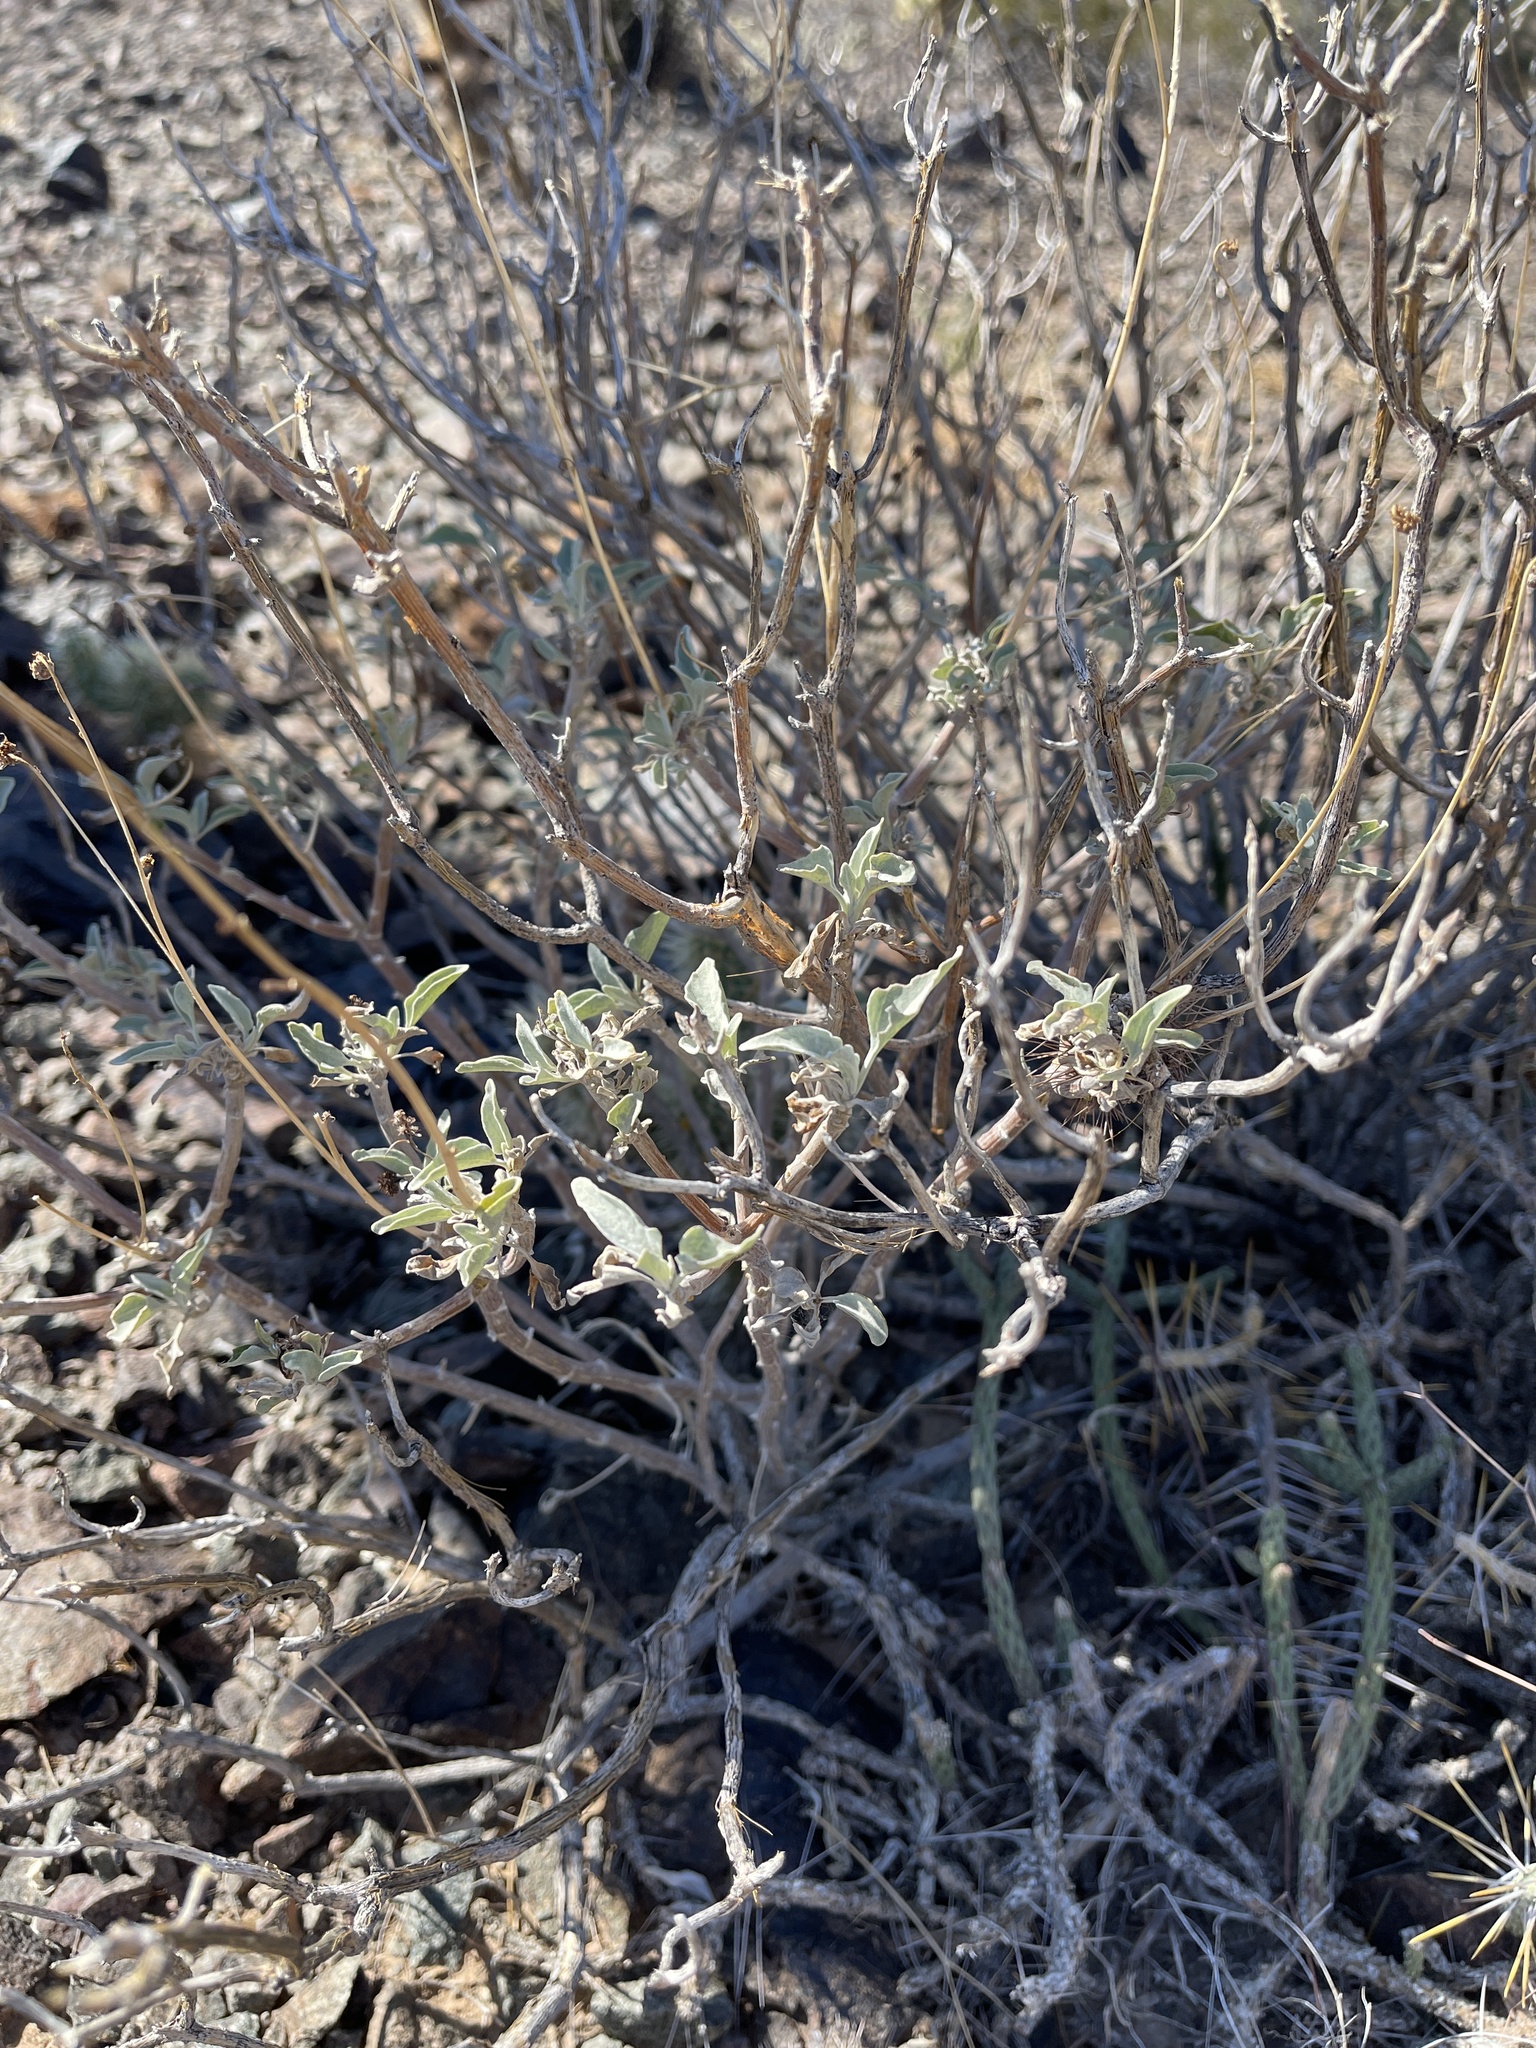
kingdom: Plantae
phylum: Tracheophyta
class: Magnoliopsida
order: Asterales
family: Asteraceae
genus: Encelia
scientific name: Encelia farinosa
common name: Brittlebush
